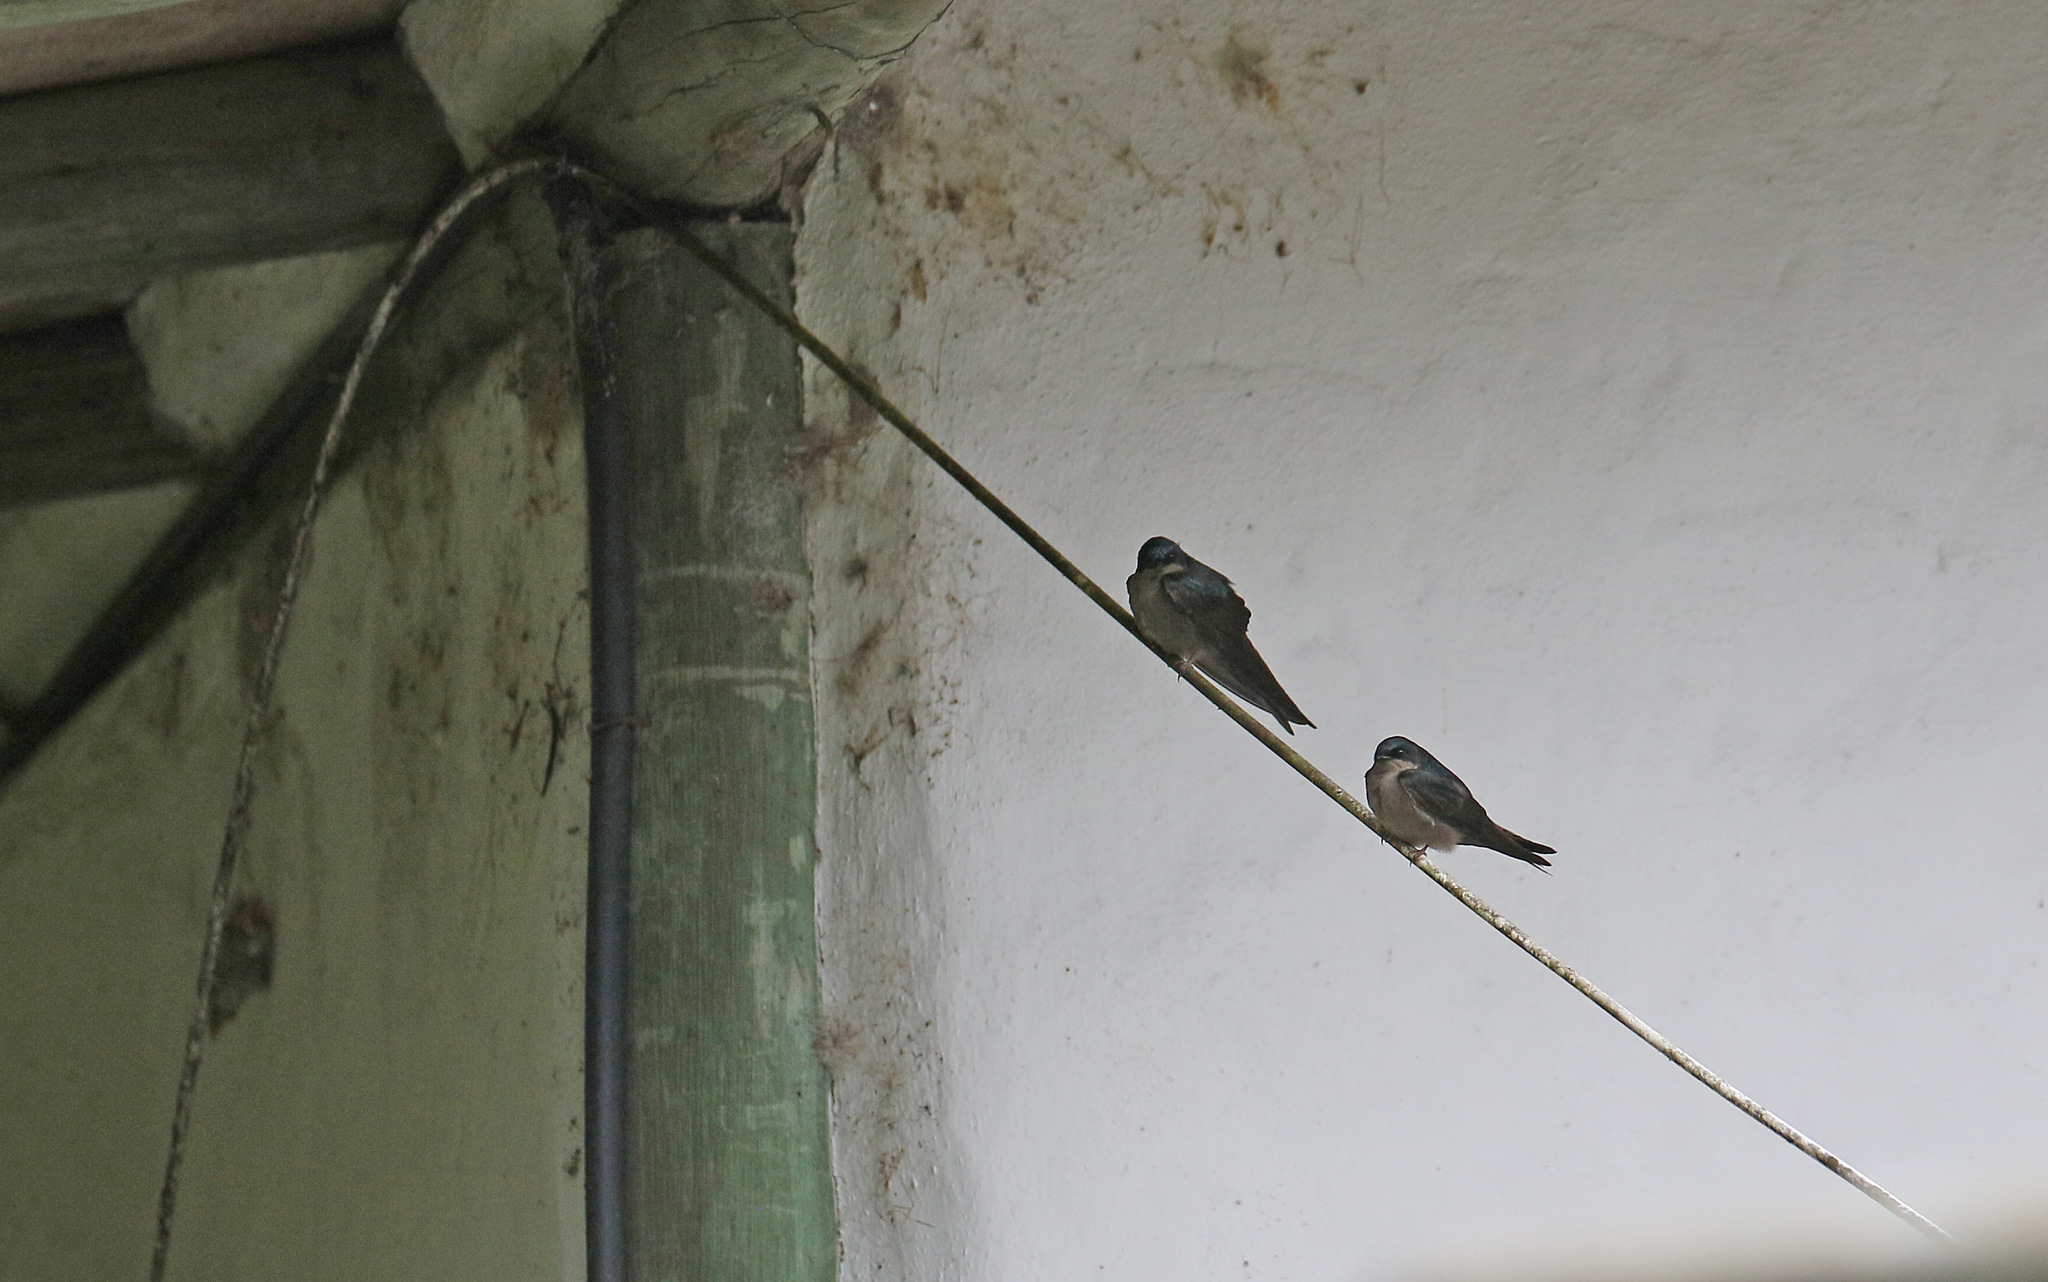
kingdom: Animalia
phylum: Chordata
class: Aves
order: Passeriformes
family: Hirundinidae
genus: Notiochelidon
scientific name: Notiochelidon murina
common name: Brown-bellied swallow
